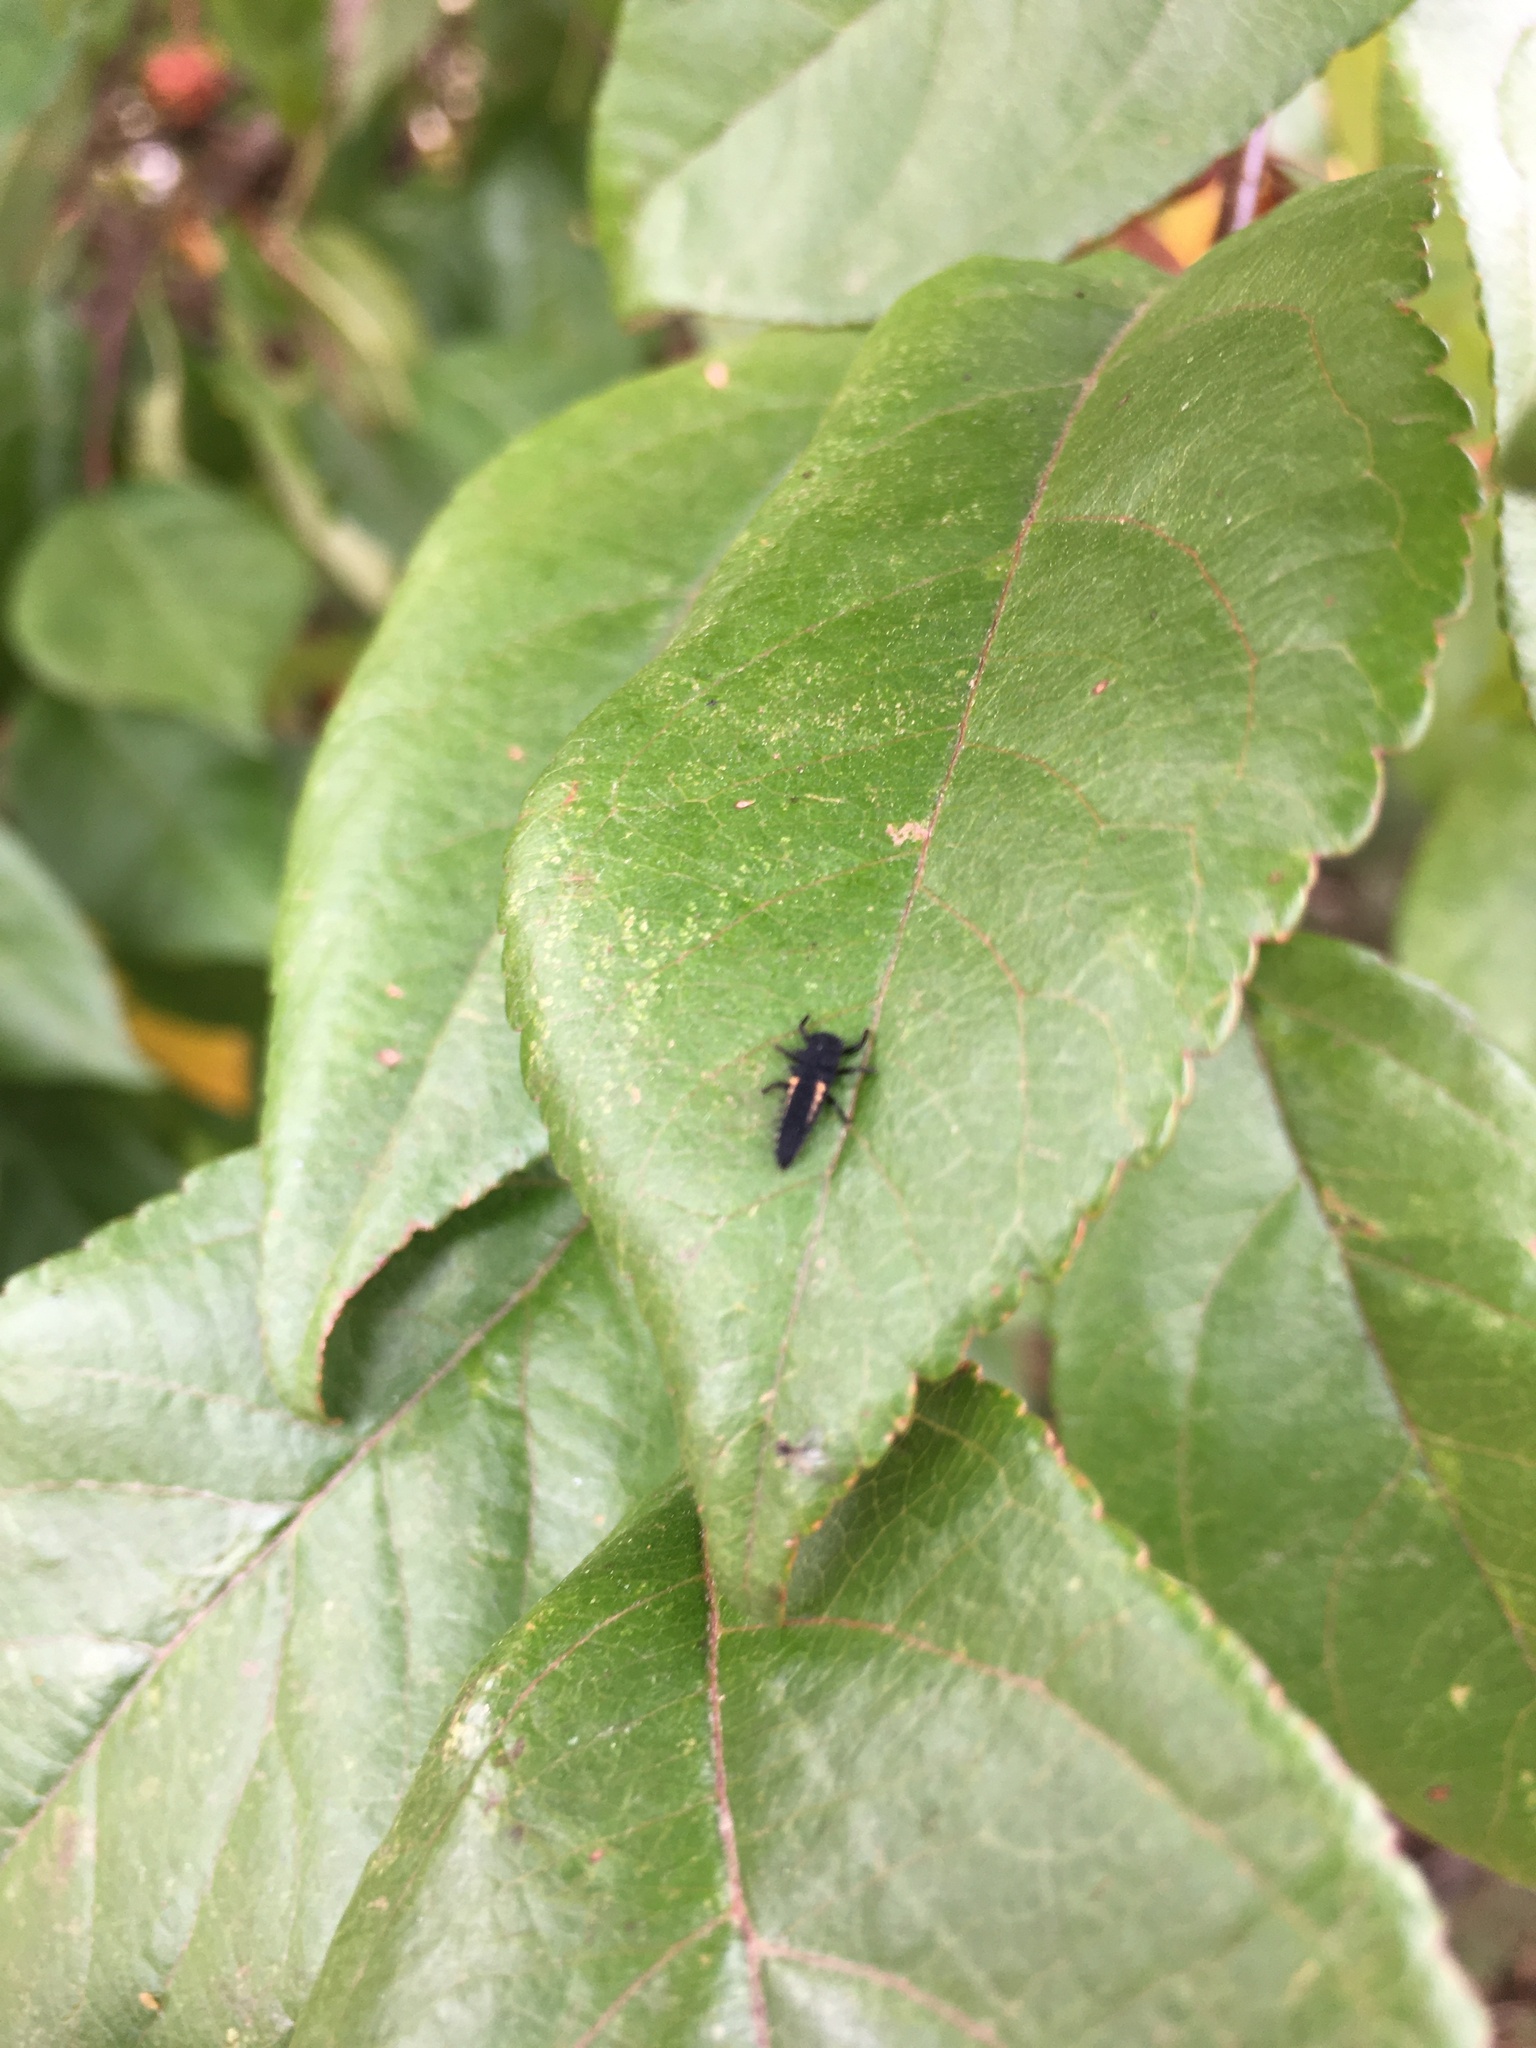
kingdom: Animalia
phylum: Arthropoda
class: Insecta
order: Coleoptera
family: Coccinellidae
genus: Harmonia
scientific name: Harmonia axyridis
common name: Harlequin ladybird
